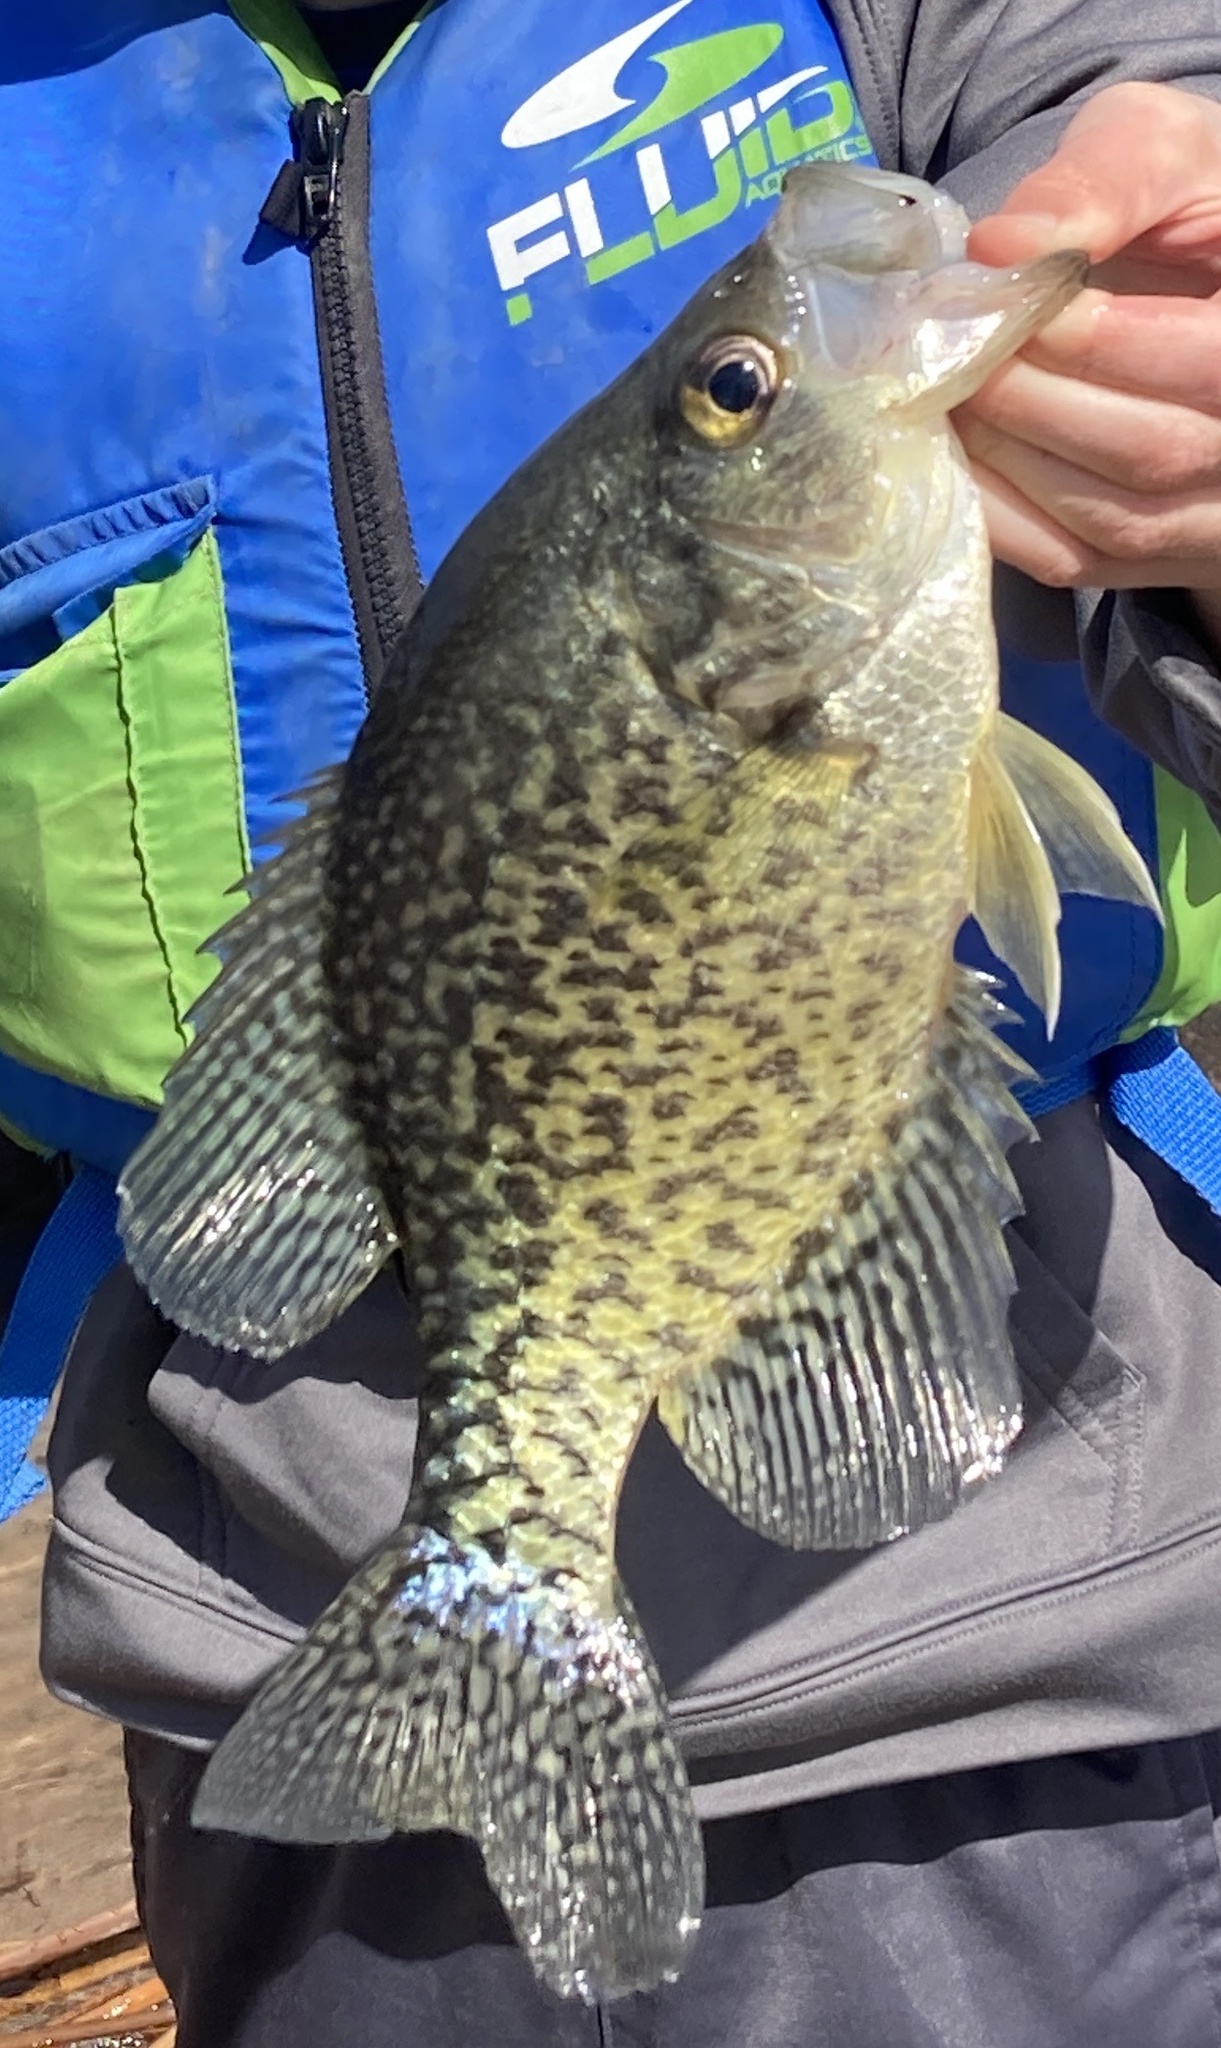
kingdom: Animalia
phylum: Chordata
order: Perciformes
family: Centrarchidae
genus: Pomoxis
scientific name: Pomoxis nigromaculatus
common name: Black crappie
